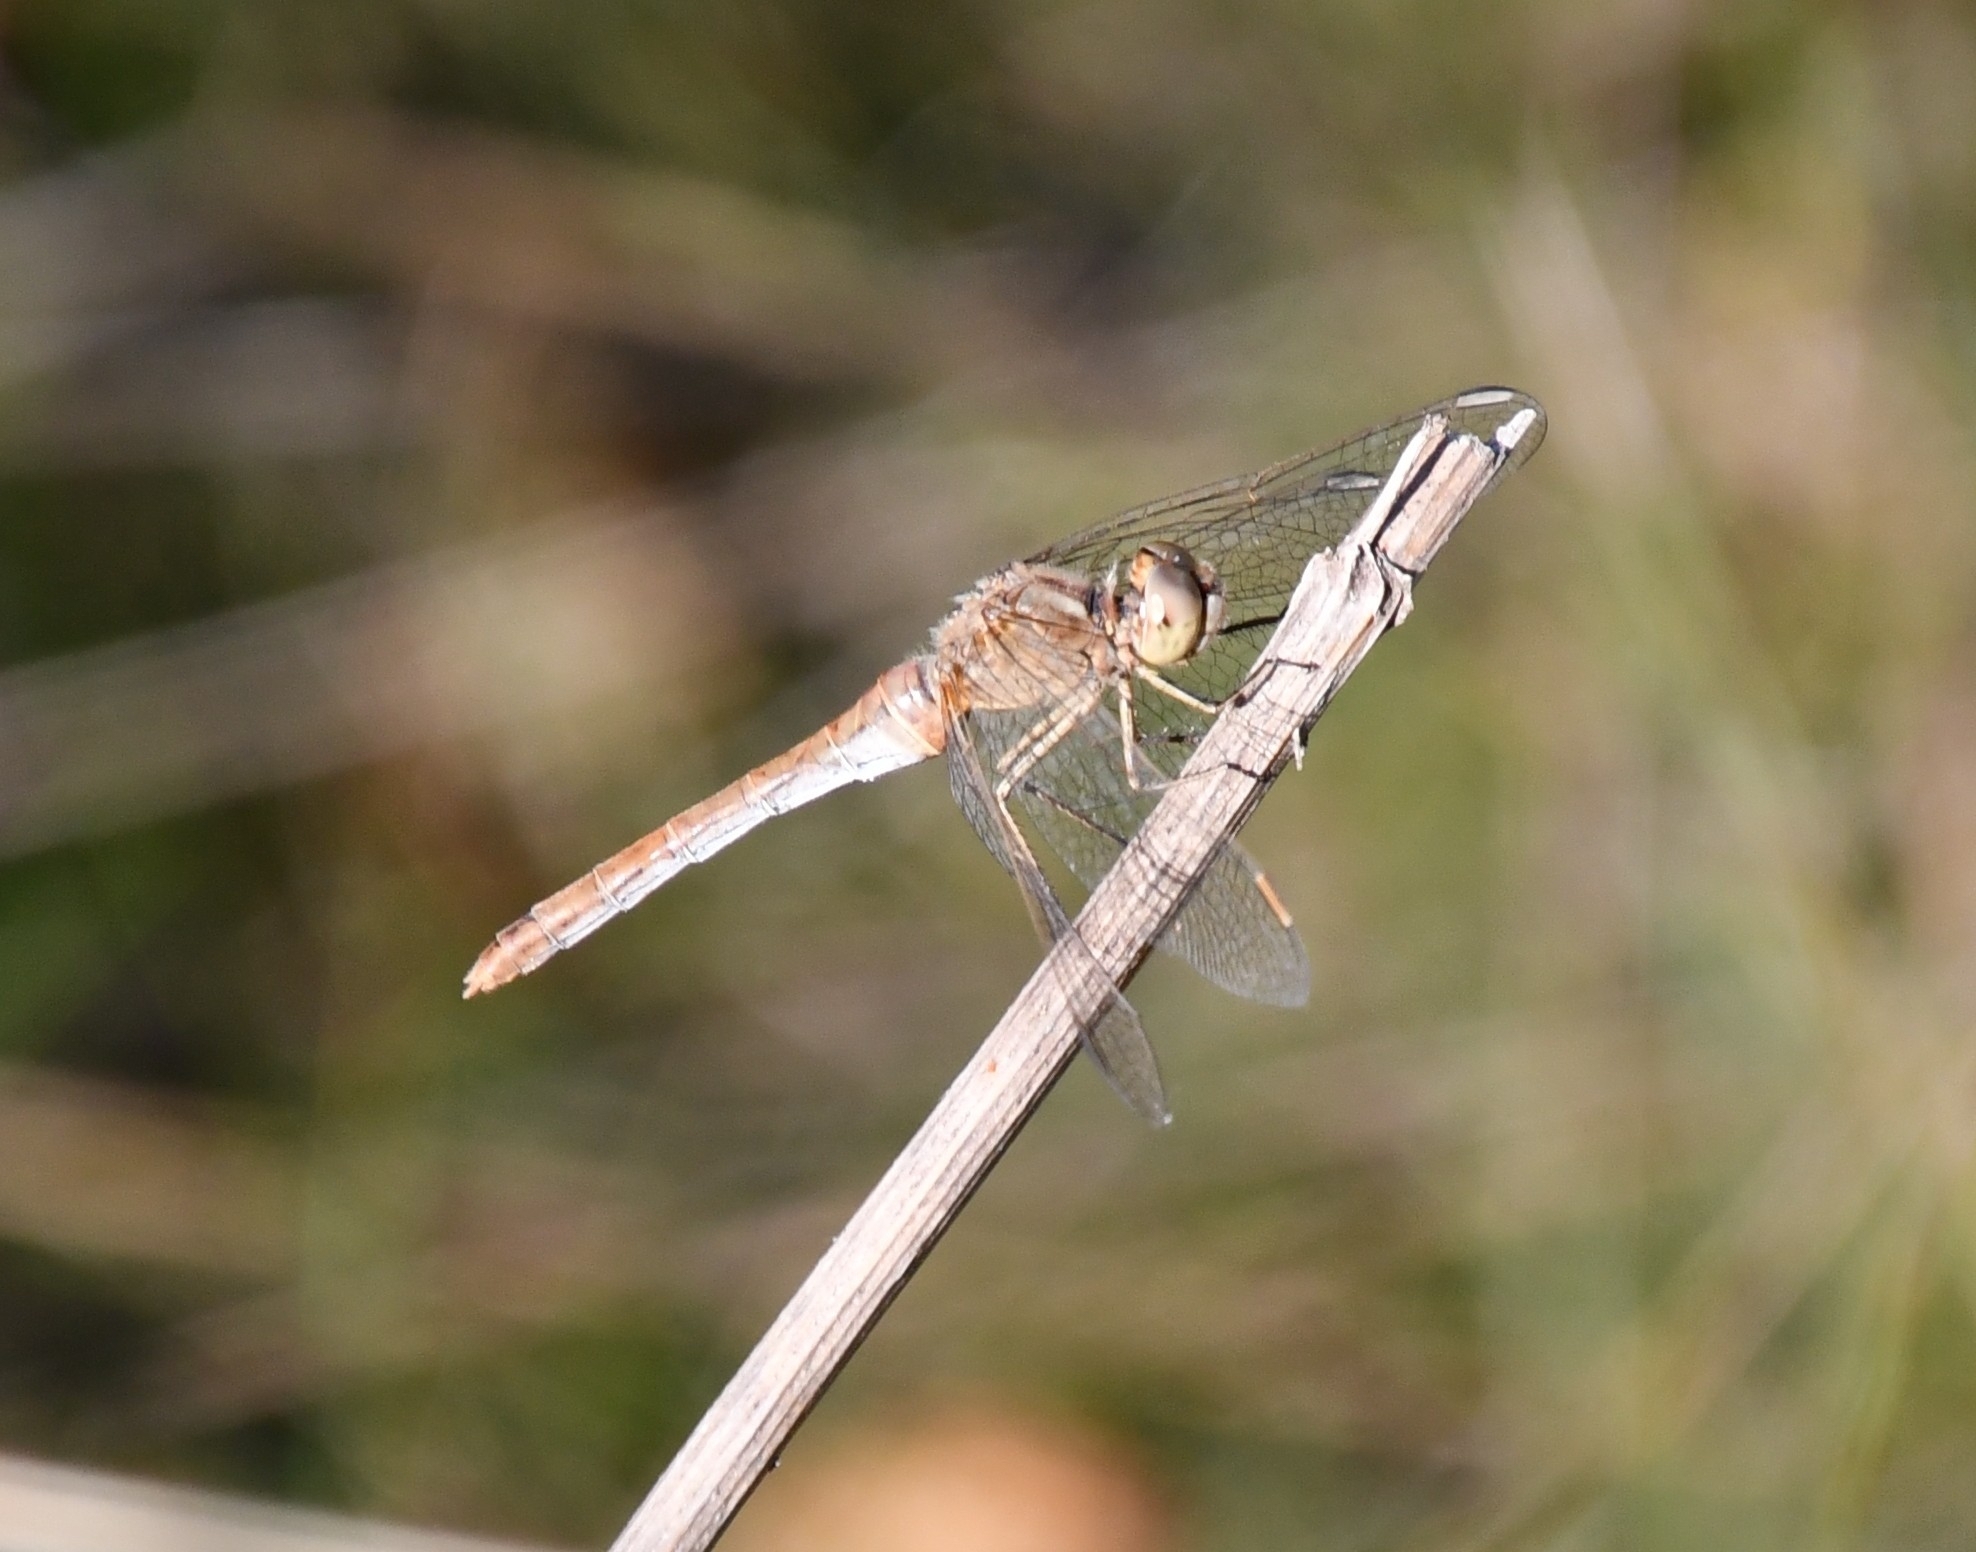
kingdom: Animalia
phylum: Arthropoda
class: Insecta
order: Odonata
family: Libellulidae
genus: Sympetrum
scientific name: Sympetrum meridionale
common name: Southern darter
